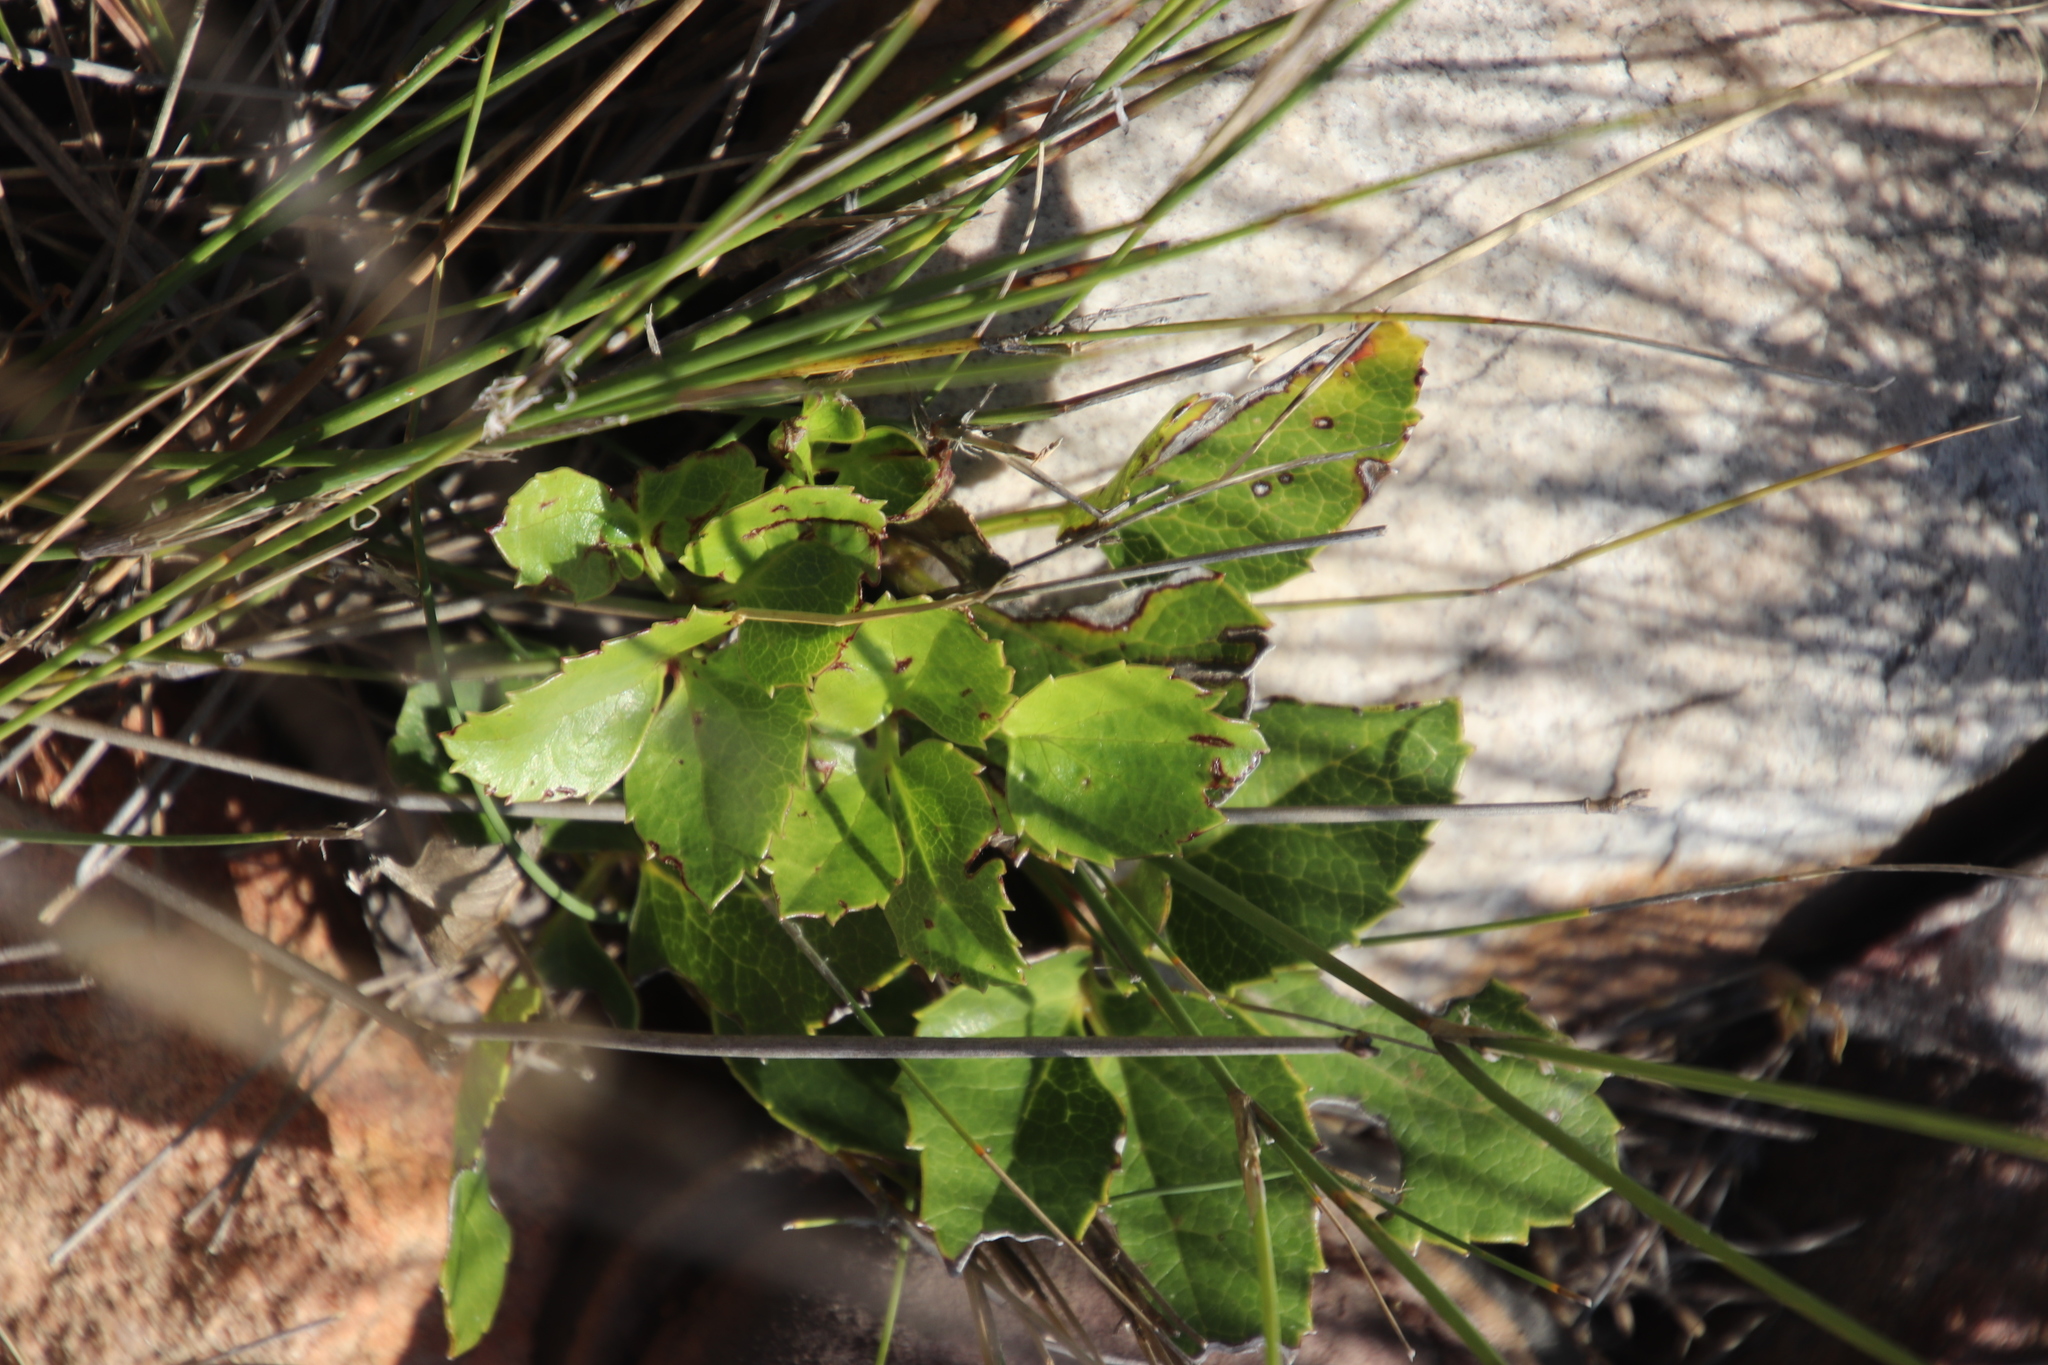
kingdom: Plantae
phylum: Tracheophyta
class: Magnoliopsida
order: Ranunculales
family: Ranunculaceae
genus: Knowltonia
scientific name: Knowltonia vesicatoria
